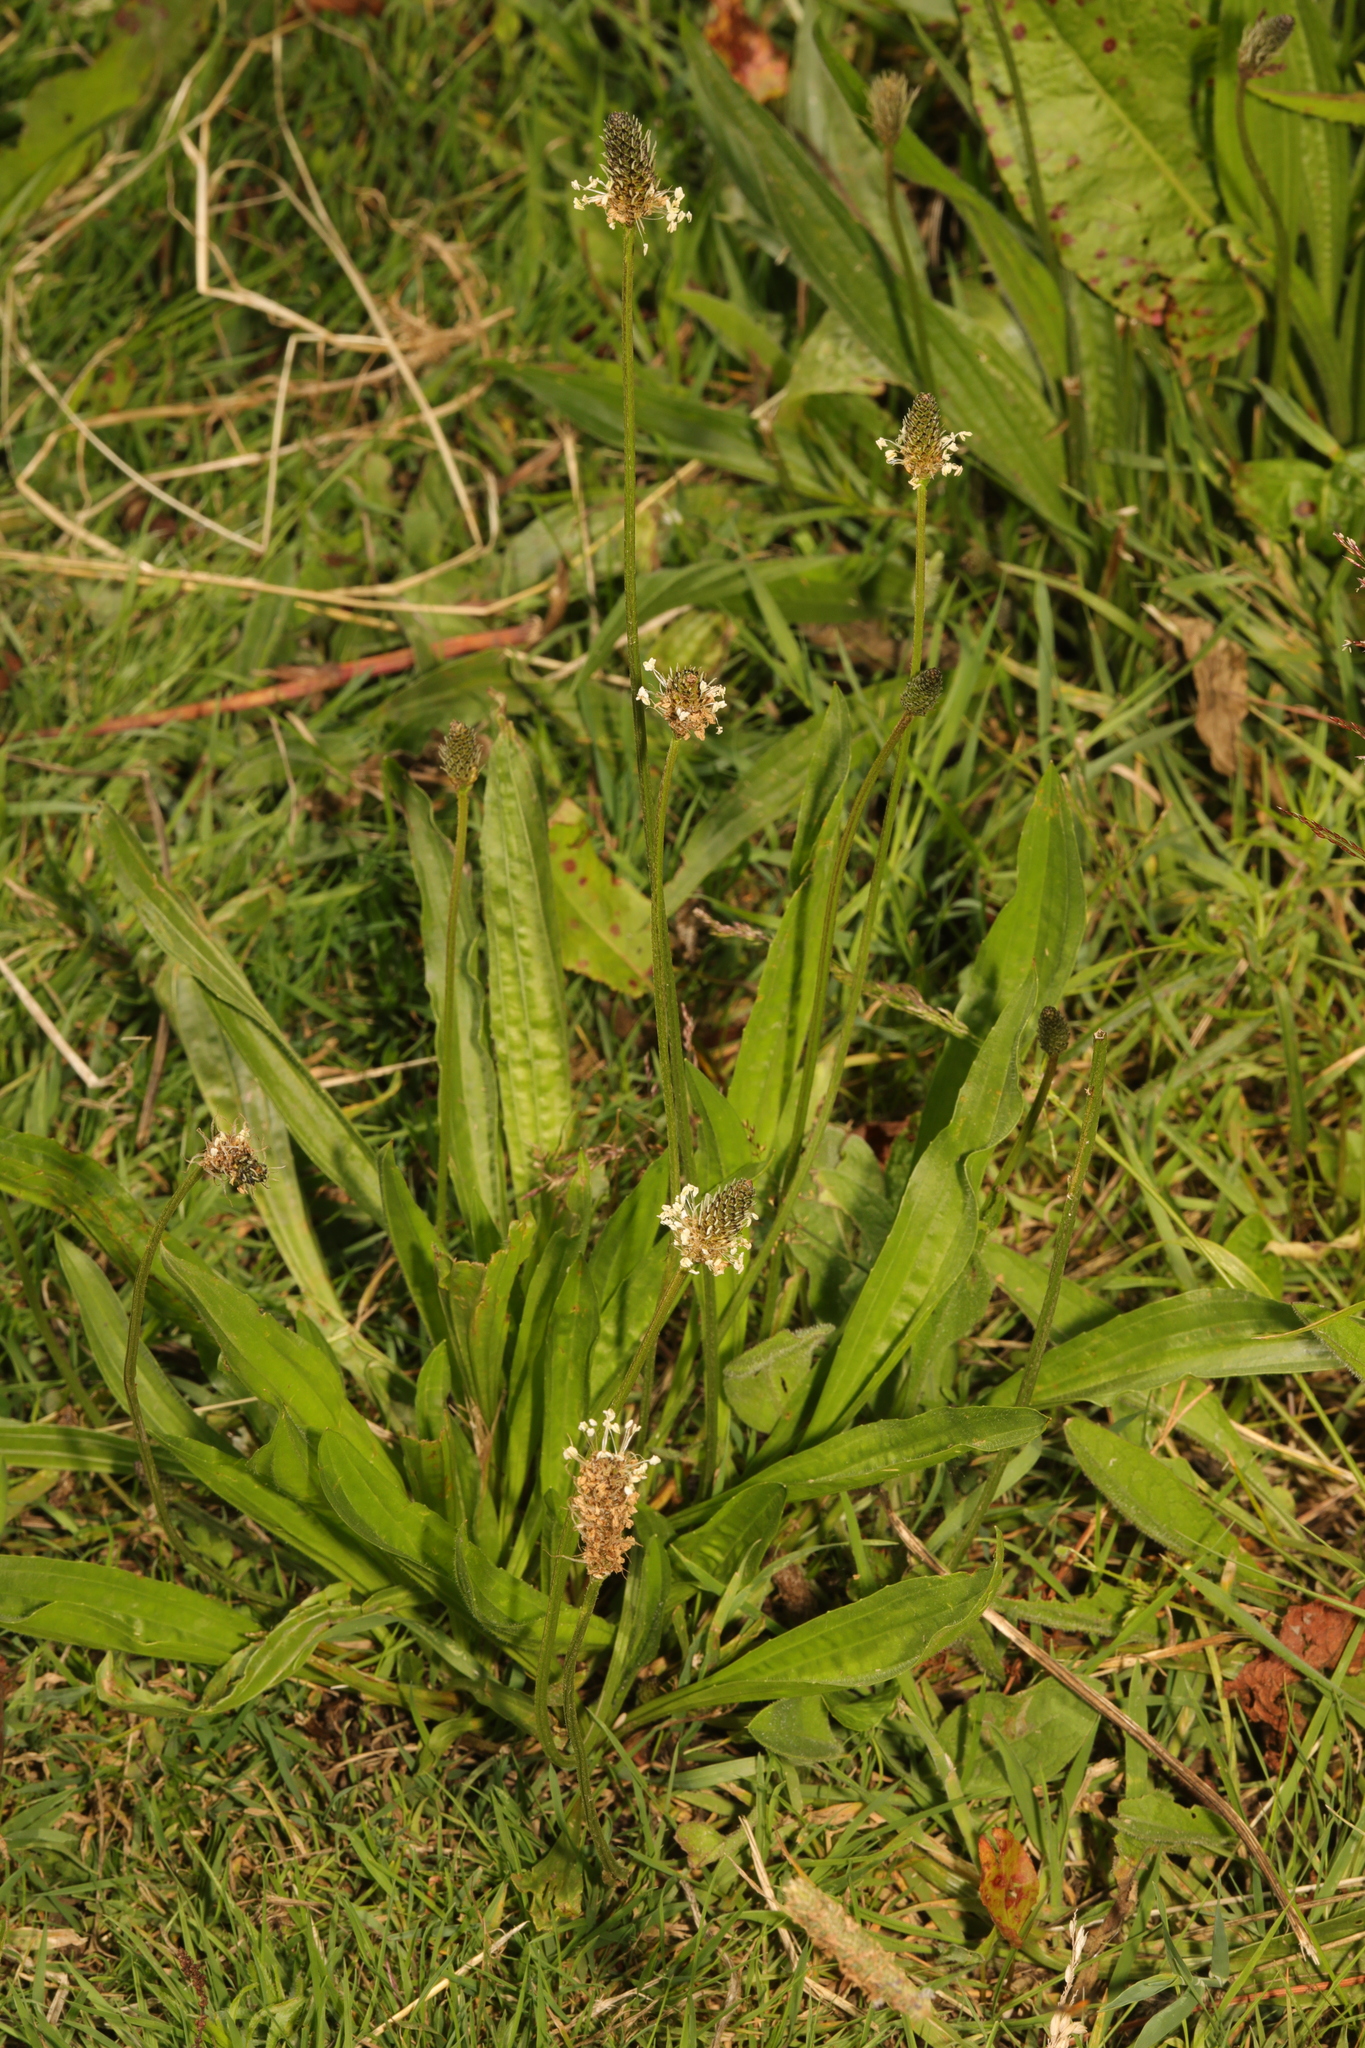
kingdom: Plantae
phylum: Tracheophyta
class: Magnoliopsida
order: Lamiales
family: Plantaginaceae
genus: Plantago
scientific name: Plantago lanceolata
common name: Ribwort plantain
